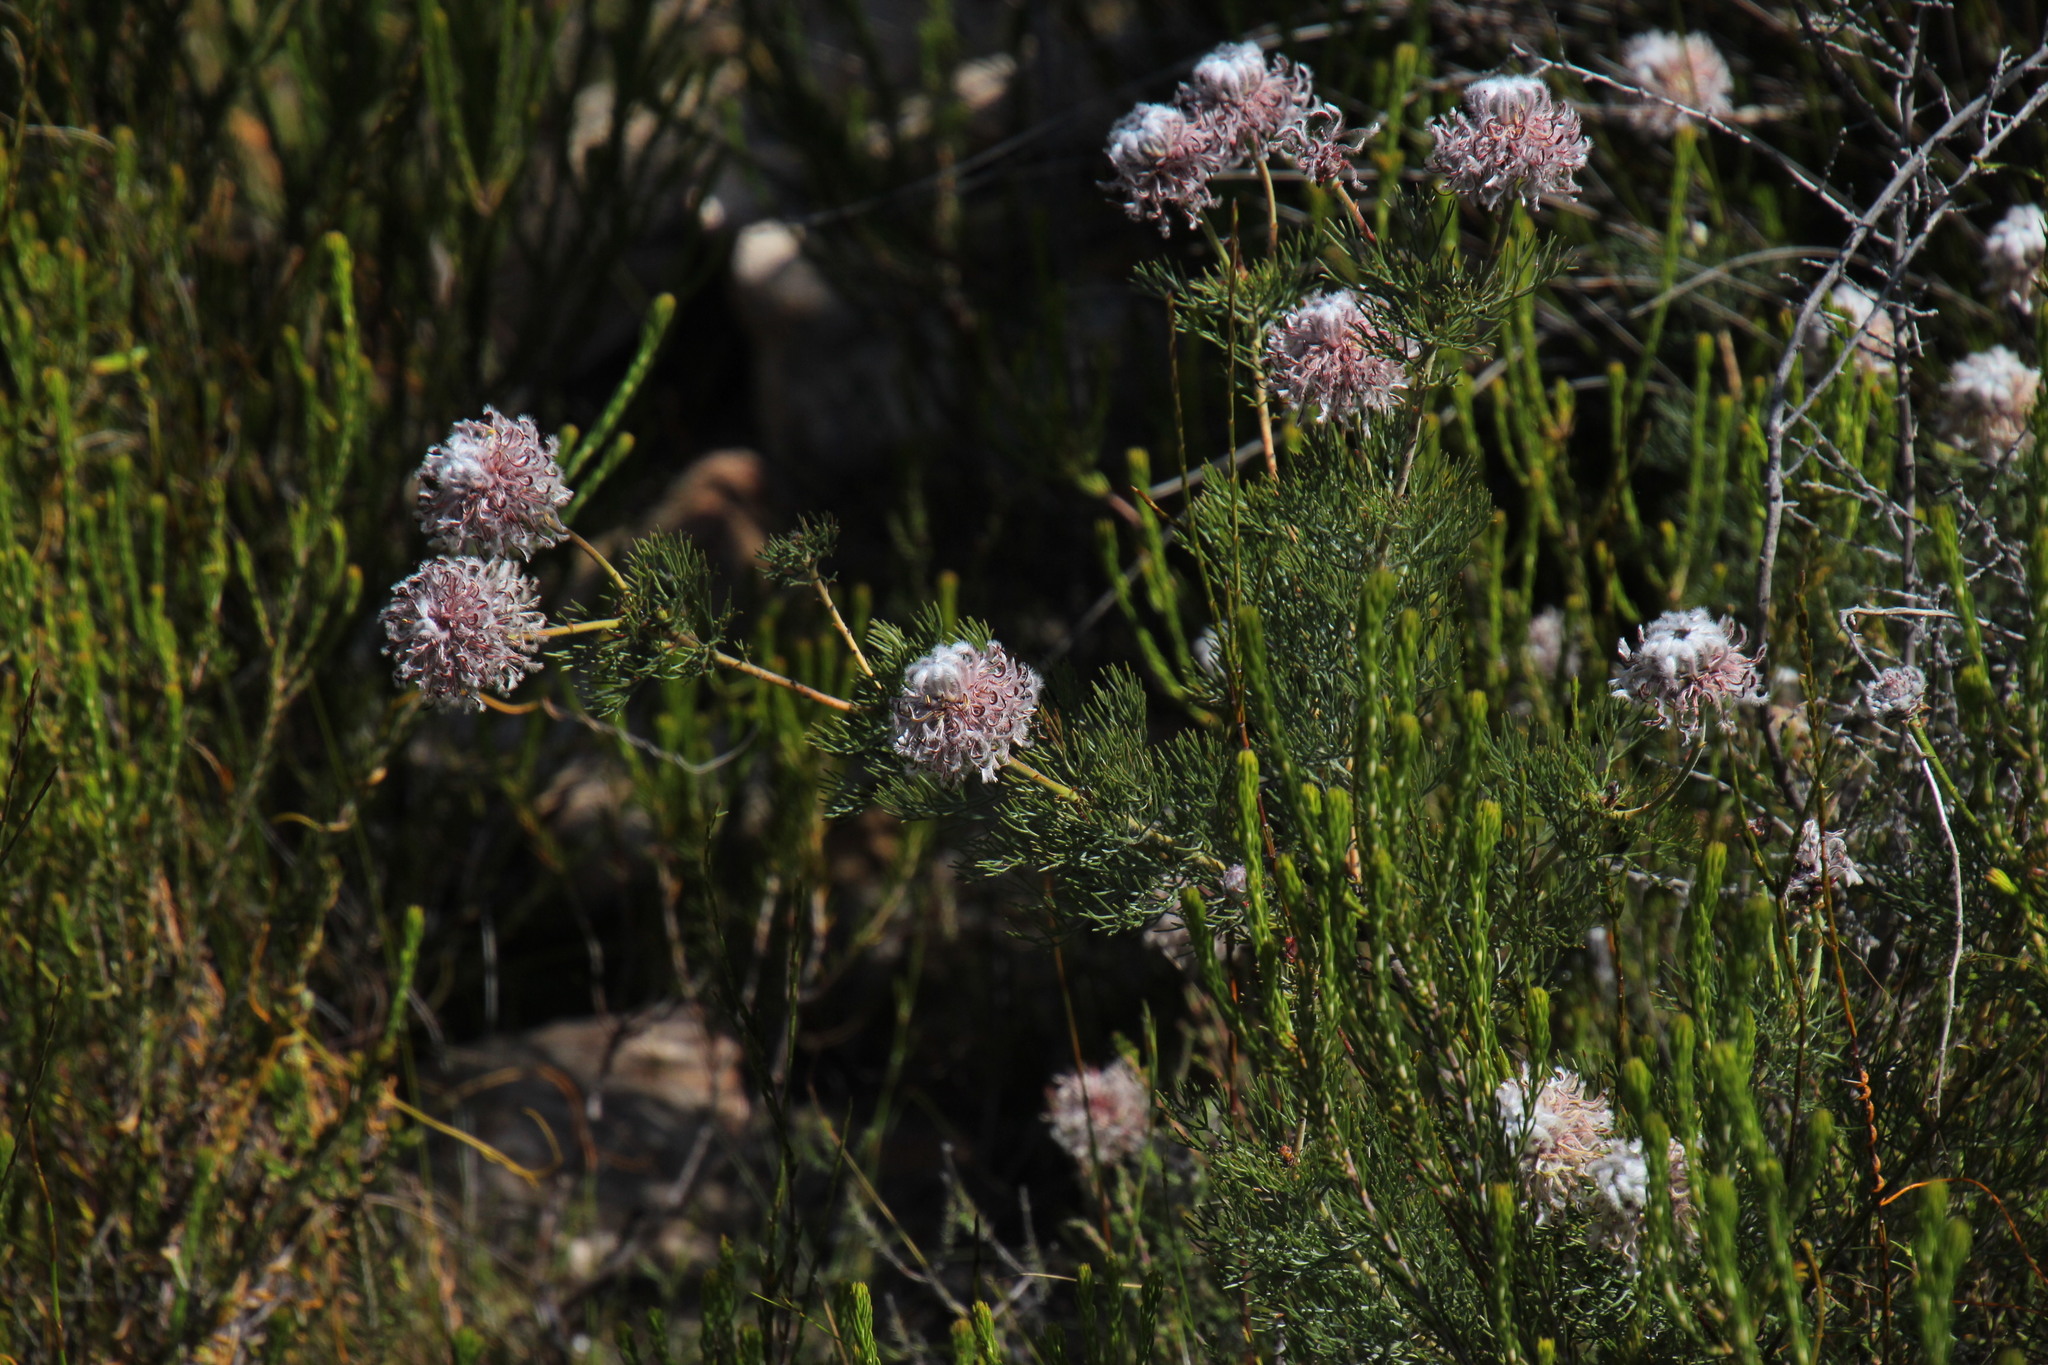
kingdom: Plantae
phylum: Tracheophyta
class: Magnoliopsida
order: Proteales
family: Proteaceae
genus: Serruria
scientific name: Serruria pedunculata
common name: Fan-leaf spiderhead
